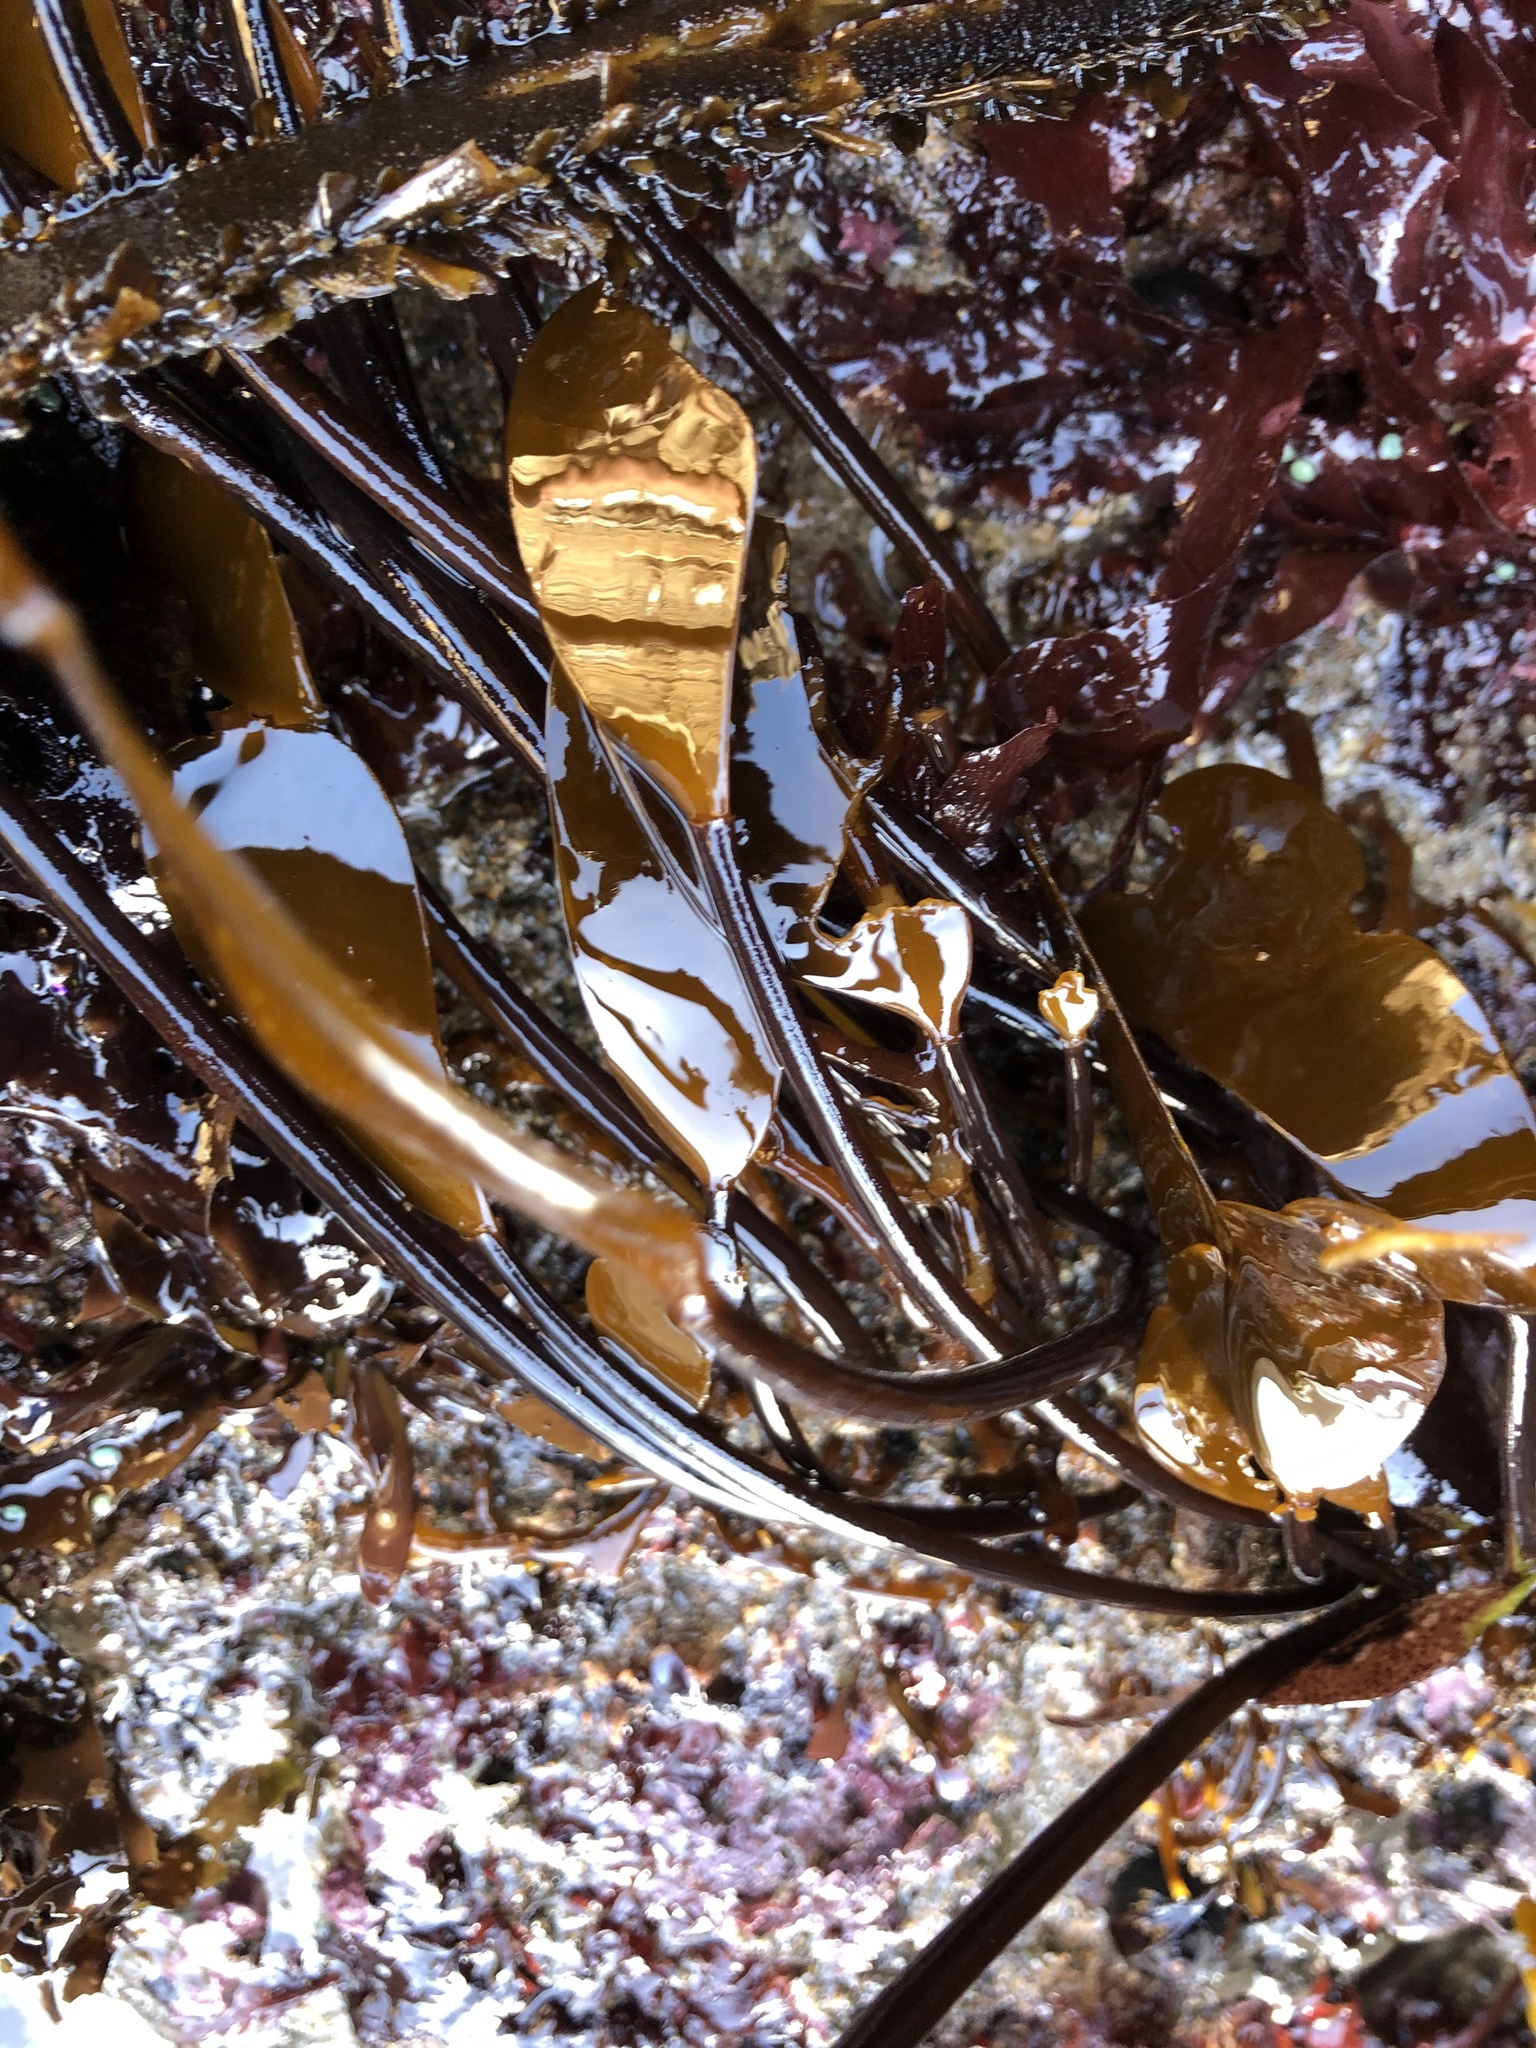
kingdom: Chromista
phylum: Ochrophyta
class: Phaeophyceae
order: Laminariales
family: Laminariaceae
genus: Laminaria
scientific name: Laminaria sinclairii
